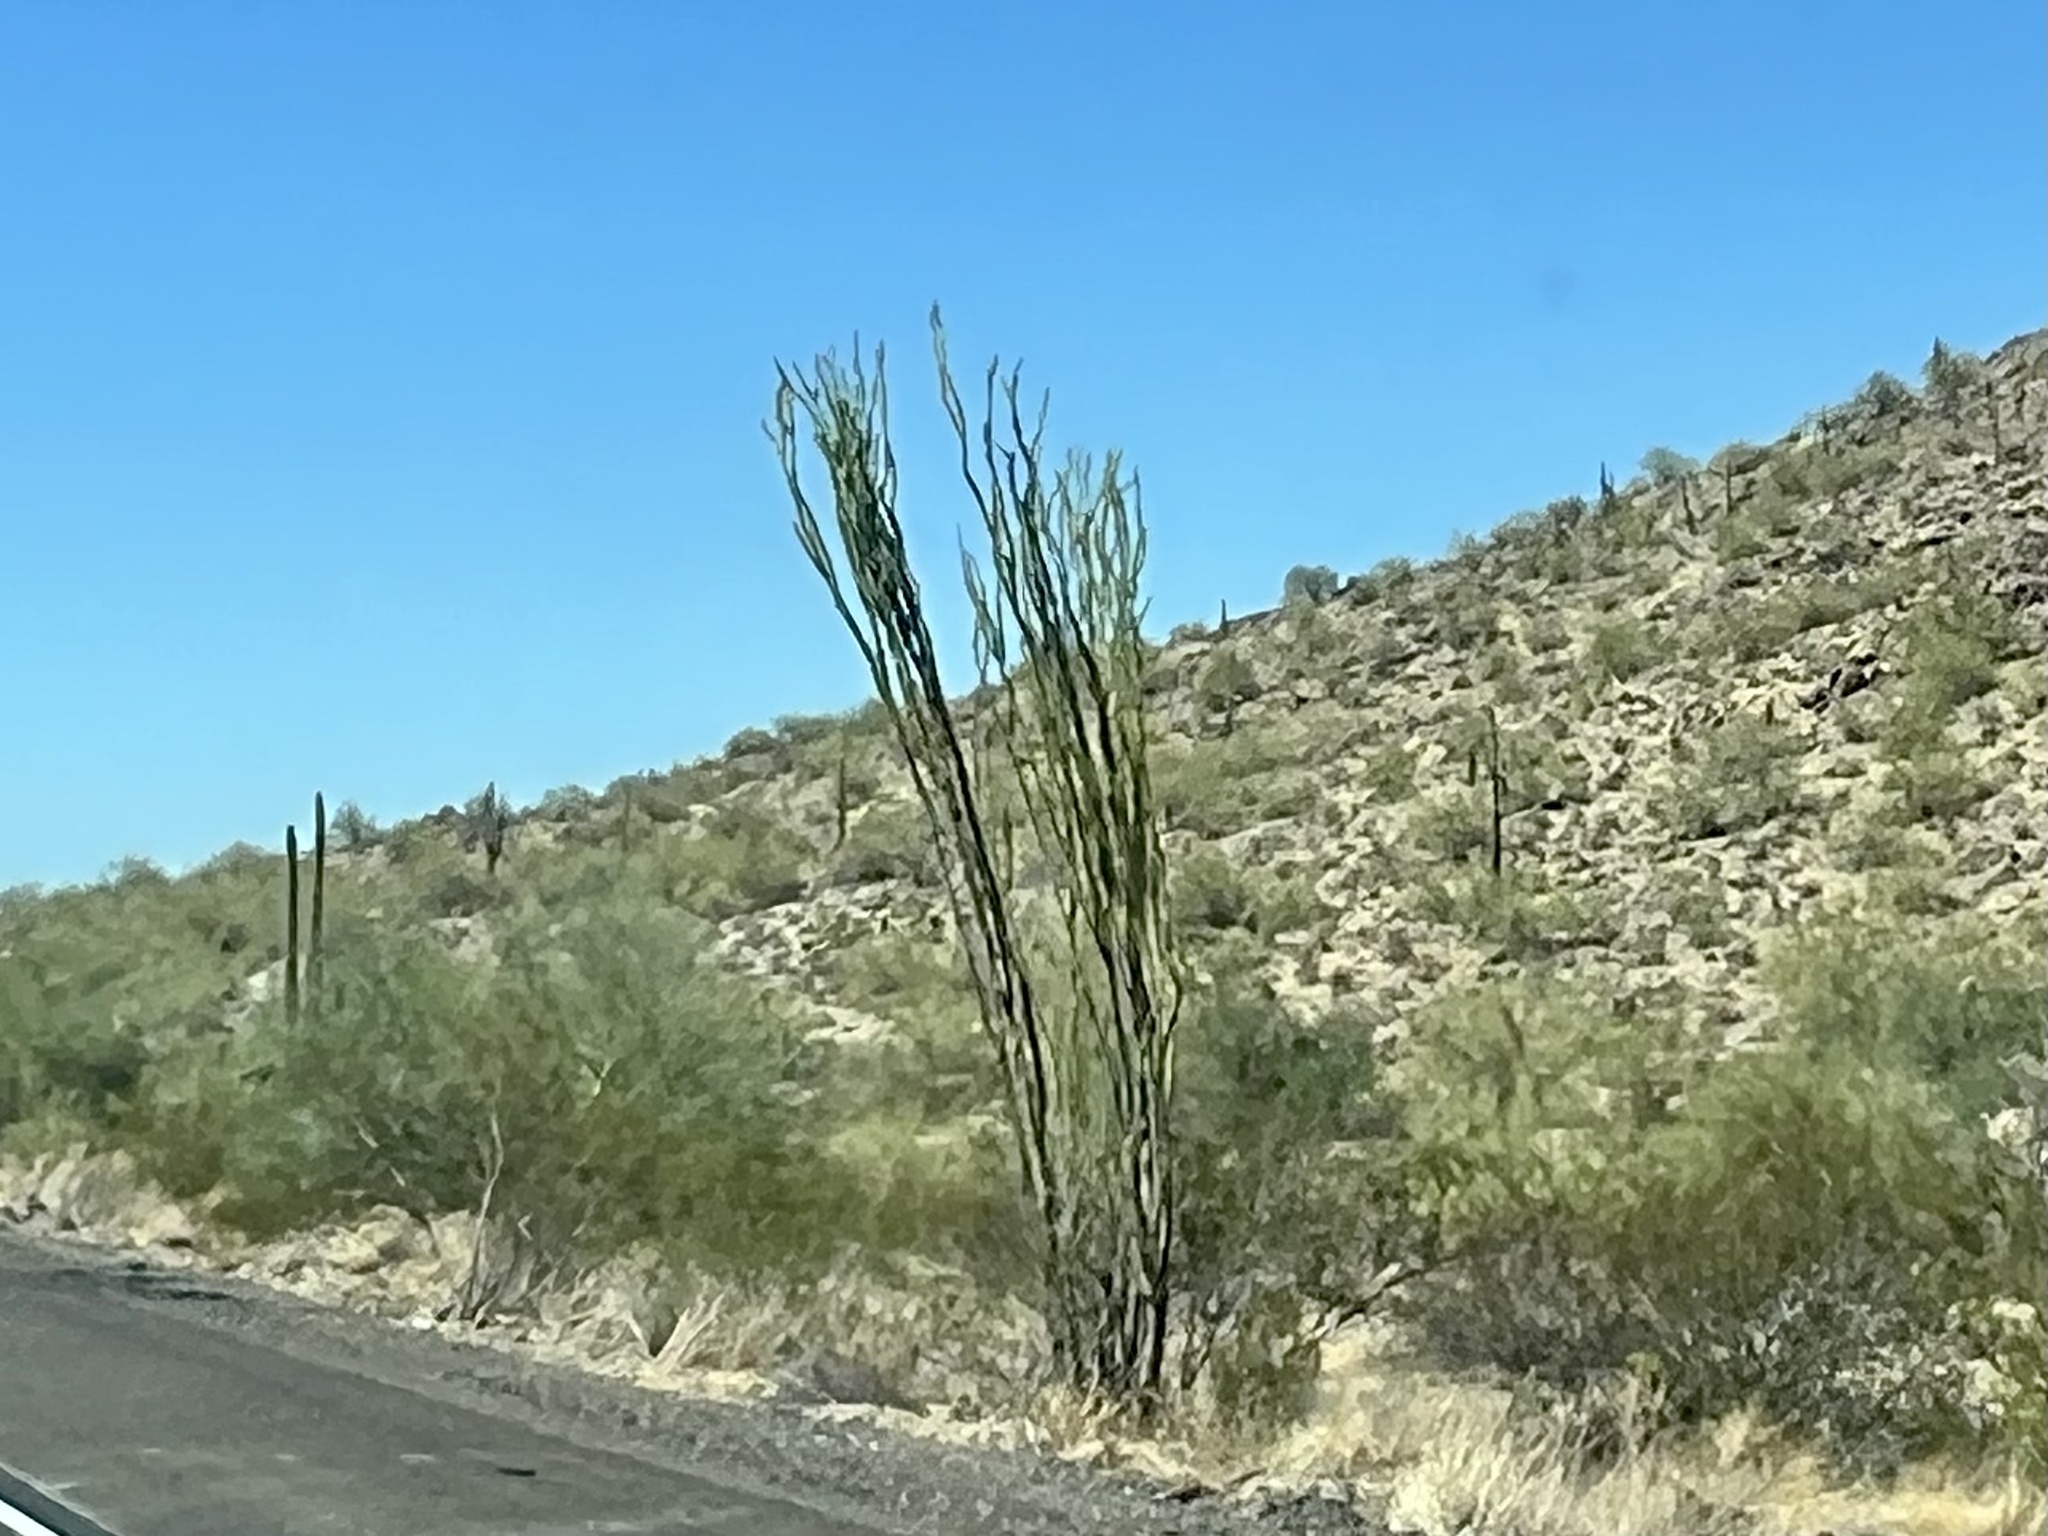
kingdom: Plantae
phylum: Tracheophyta
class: Magnoliopsida
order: Ericales
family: Fouquieriaceae
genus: Fouquieria
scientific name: Fouquieria splendens
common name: Vine-cactus
